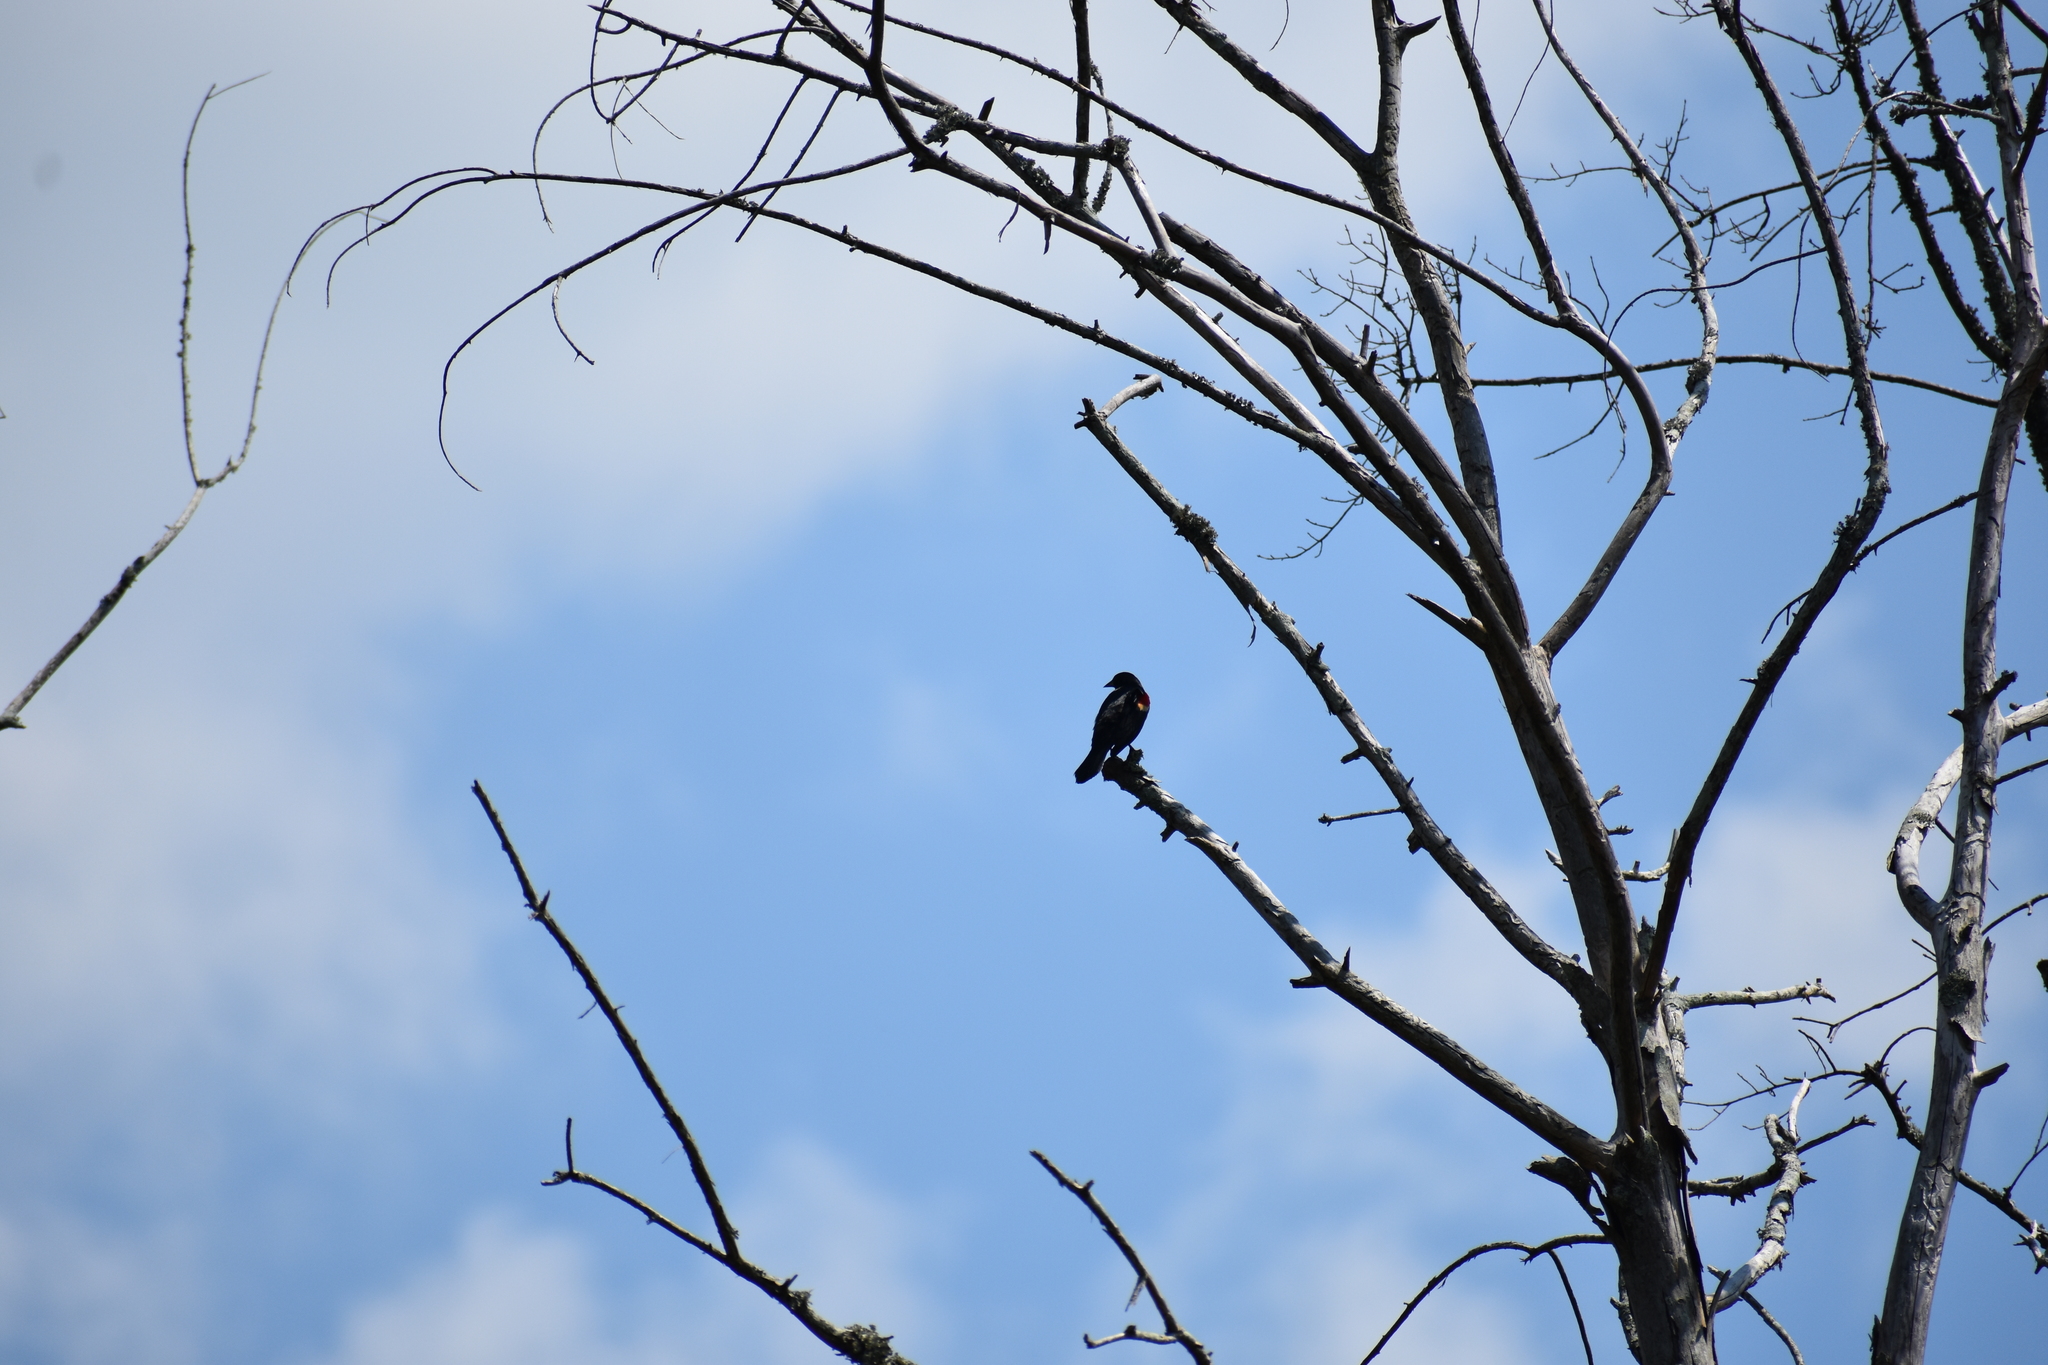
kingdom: Animalia
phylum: Chordata
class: Aves
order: Passeriformes
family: Icteridae
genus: Agelaius
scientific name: Agelaius phoeniceus
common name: Red-winged blackbird
